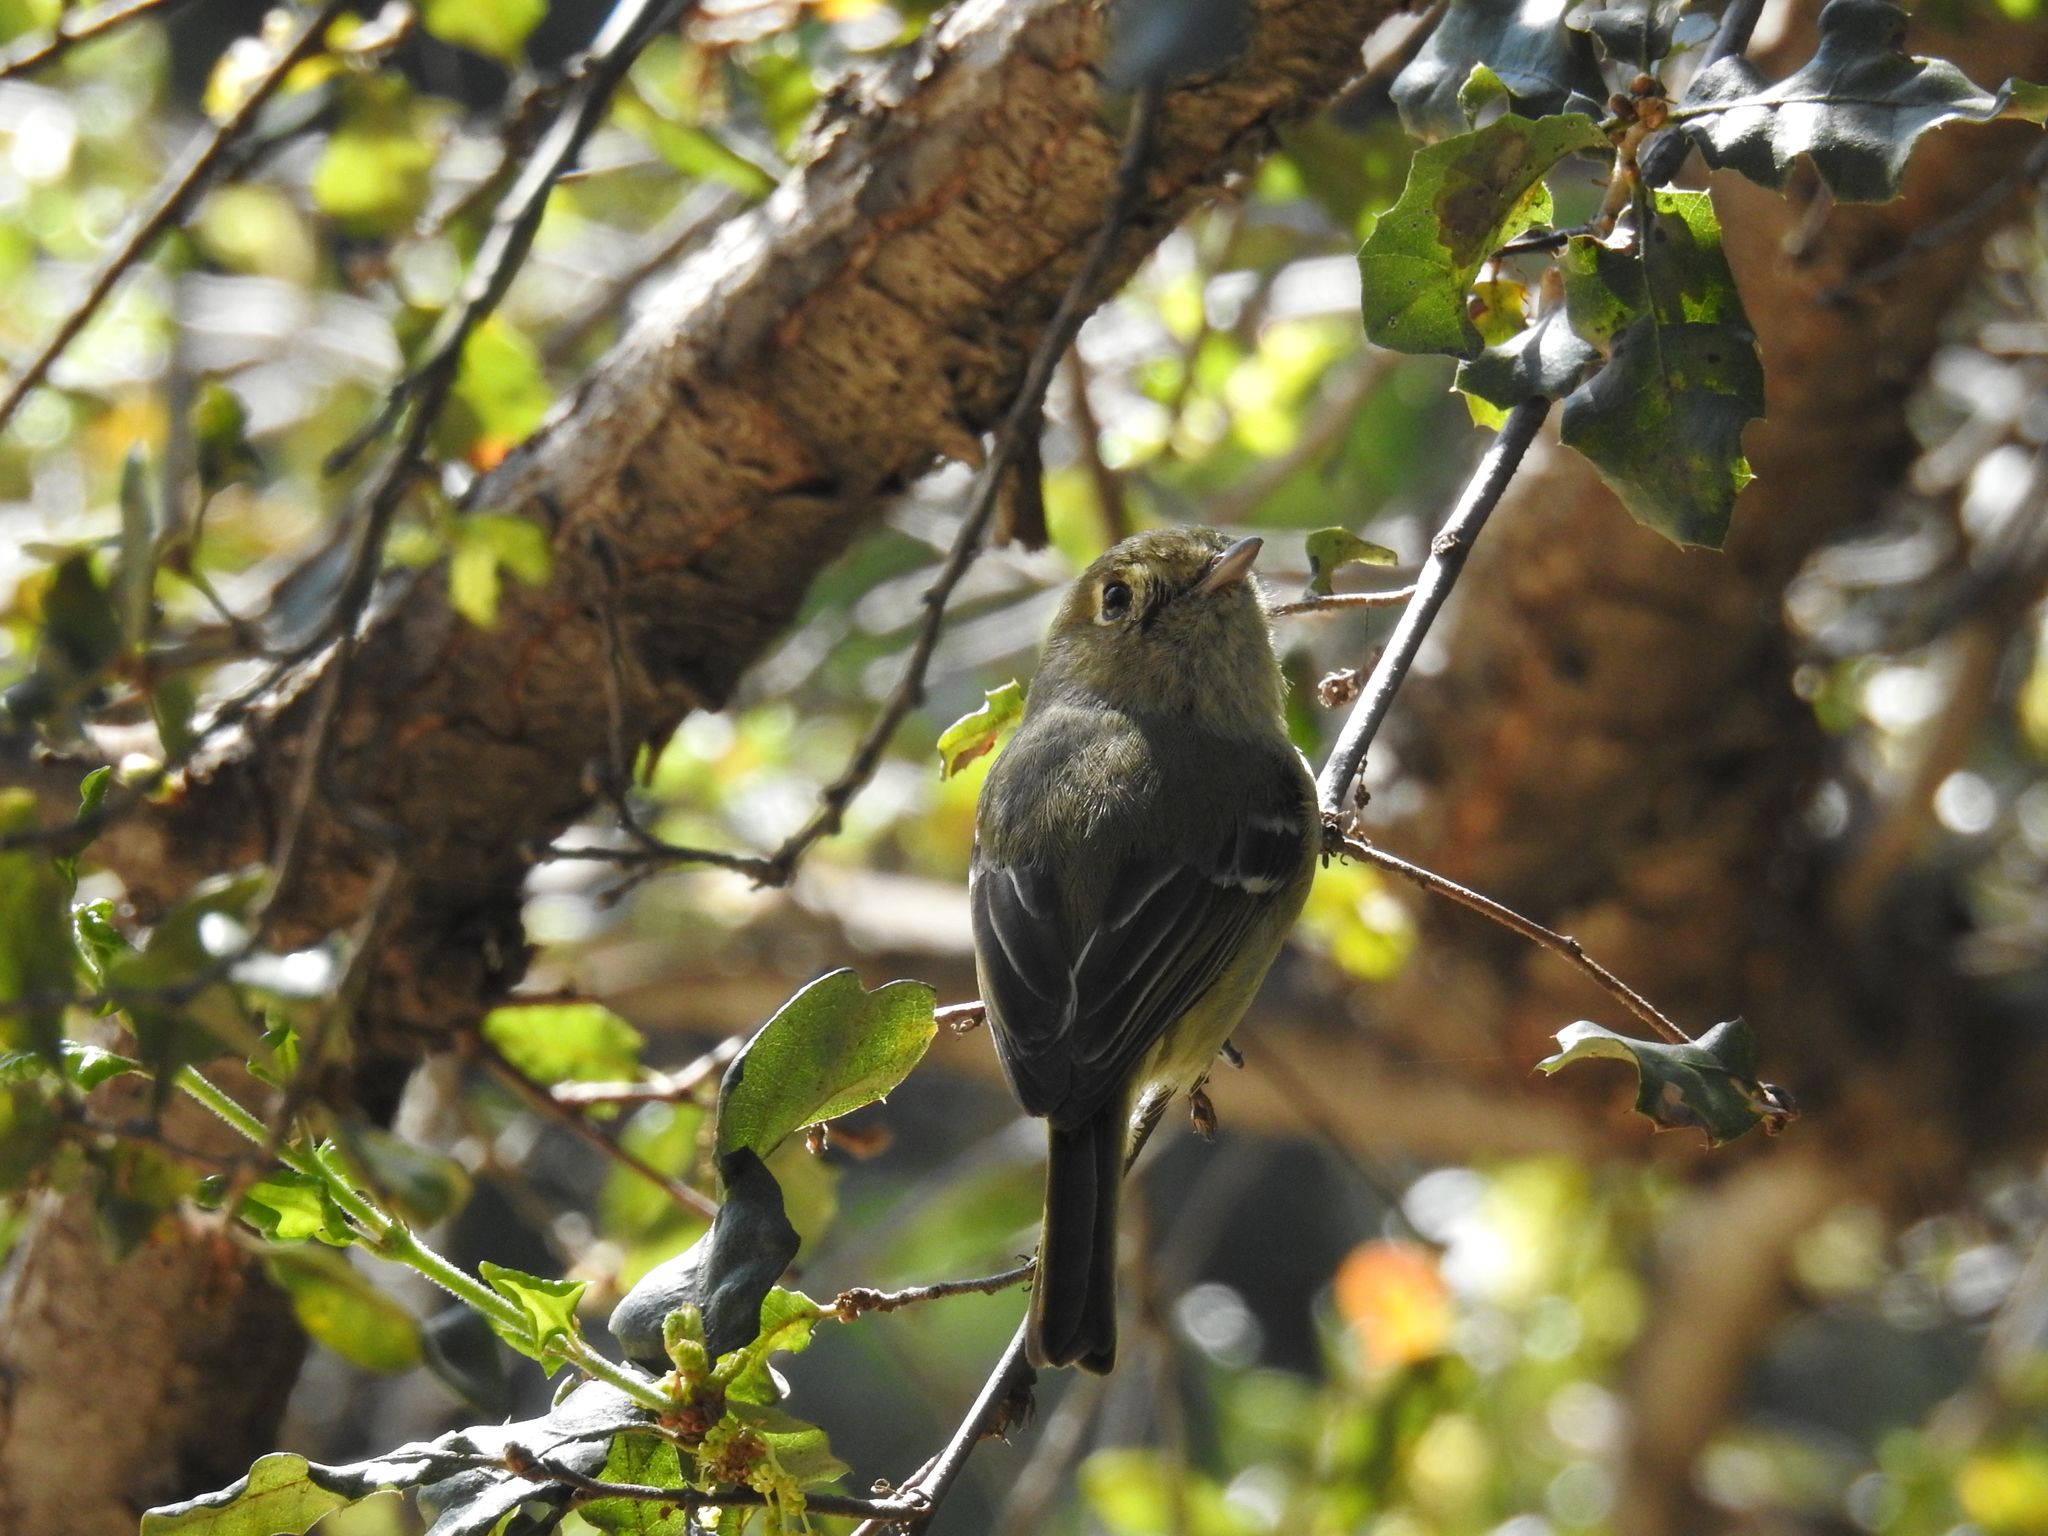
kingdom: Animalia
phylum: Chordata
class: Aves
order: Passeriformes
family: Vireonidae
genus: Vireo
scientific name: Vireo huttoni
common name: Hutton's vireo
